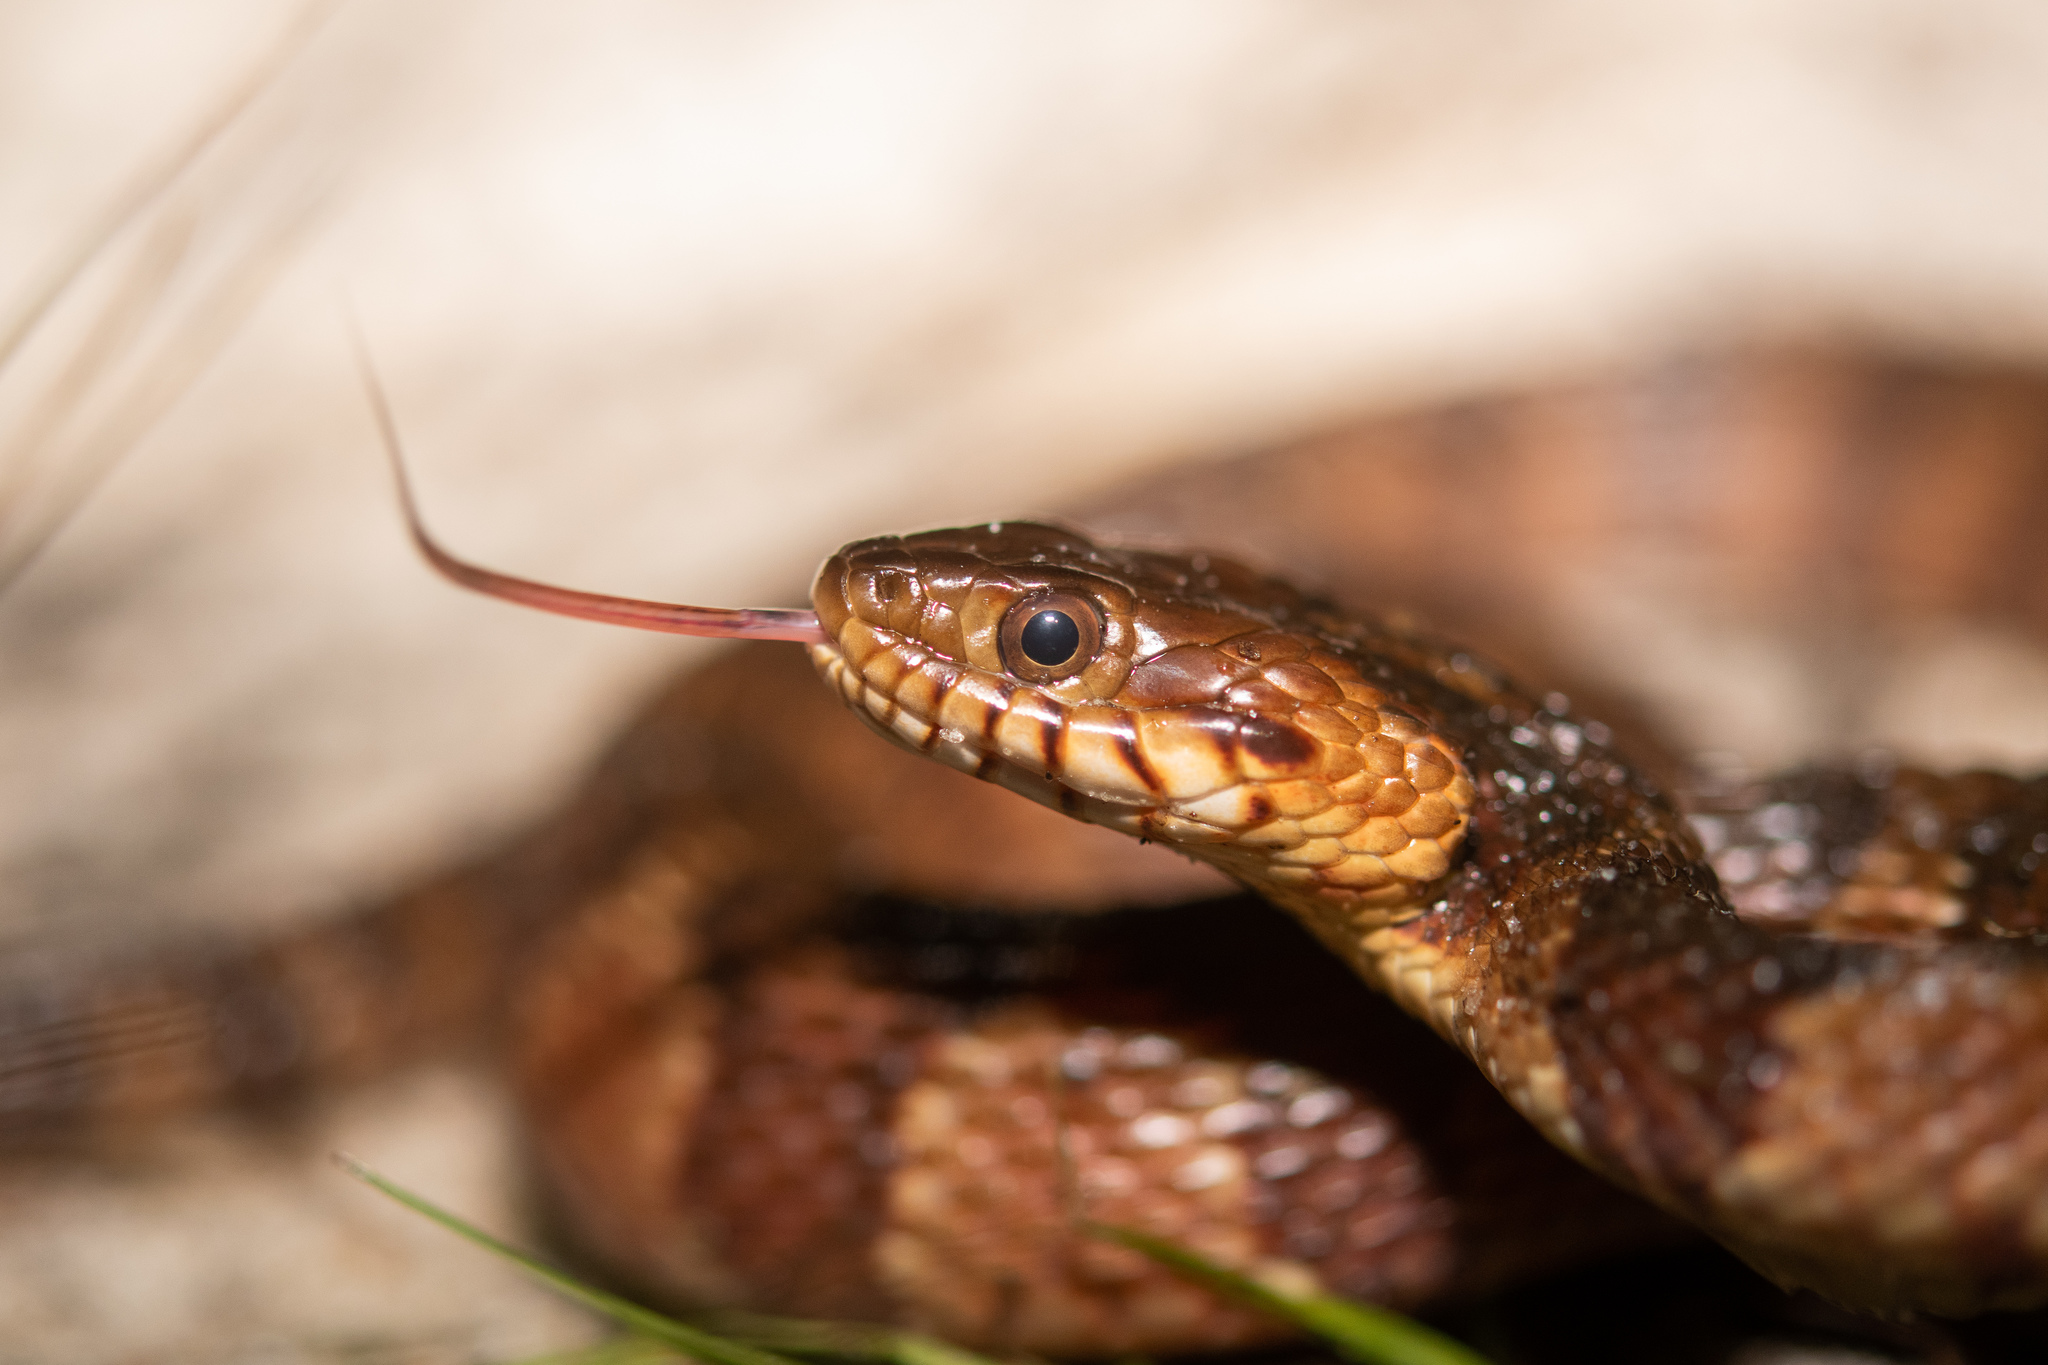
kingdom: Animalia
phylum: Chordata
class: Squamata
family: Colubridae
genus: Nerodia
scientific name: Nerodia fasciata
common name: Southern water snake
